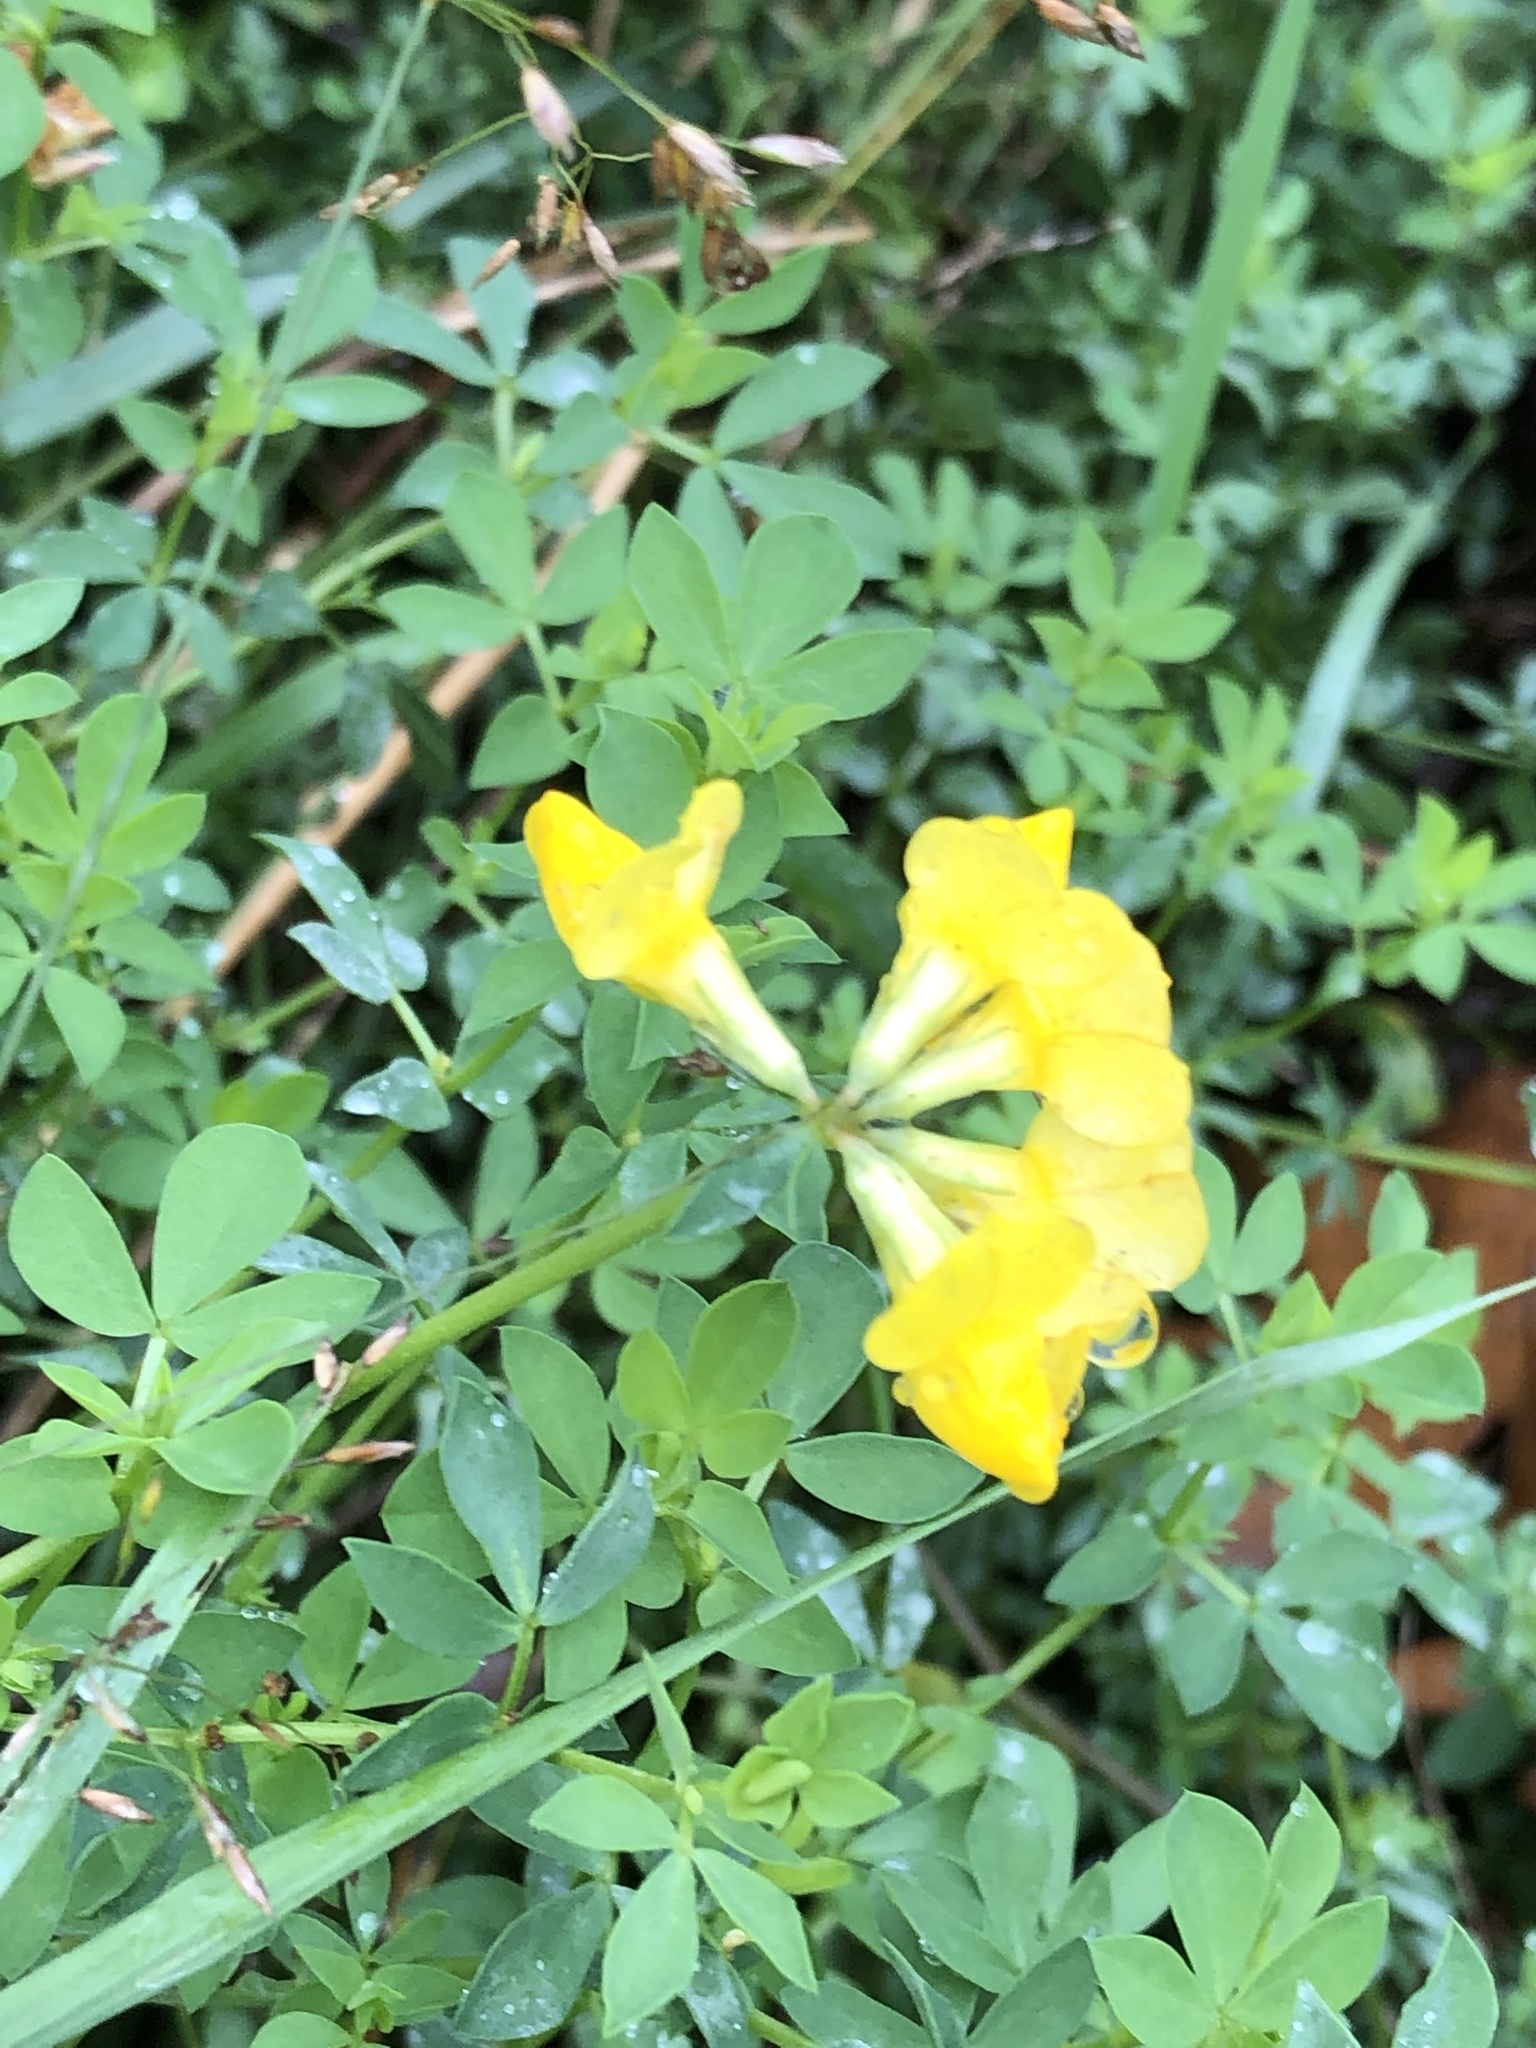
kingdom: Plantae
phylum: Tracheophyta
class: Magnoliopsida
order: Fabales
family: Fabaceae
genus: Lotus
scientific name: Lotus corniculatus
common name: Common bird's-foot-trefoil
